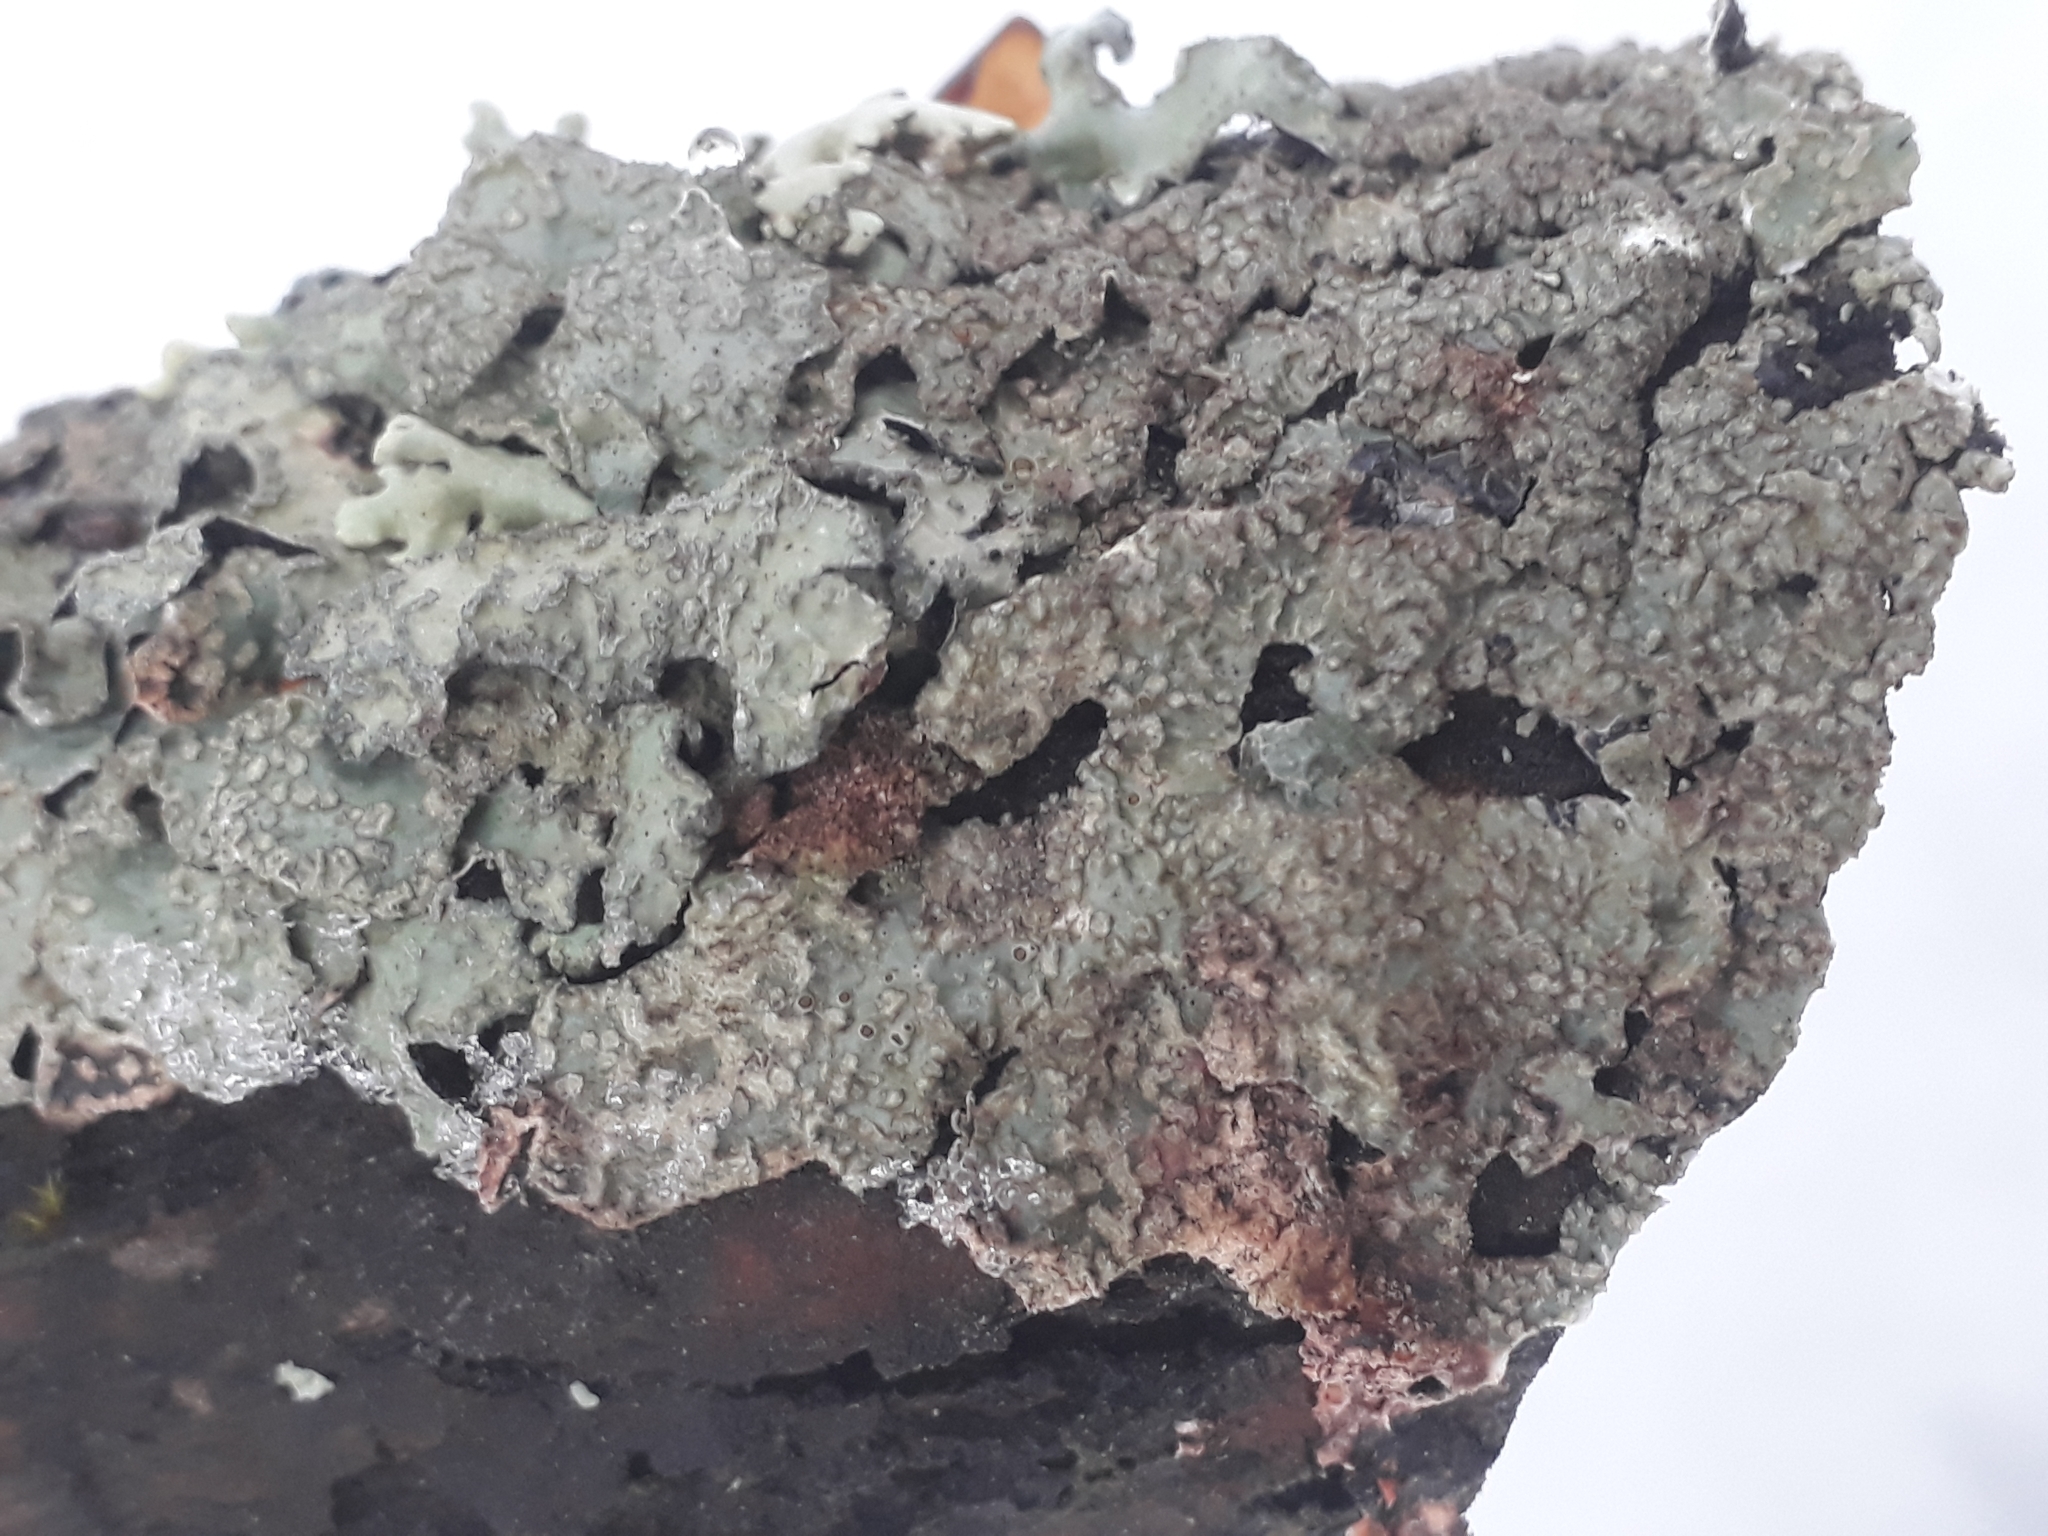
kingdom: Fungi
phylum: Ascomycota
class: Lecanoromycetes
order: Lecanorales
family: Parmeliaceae
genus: Parmelia
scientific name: Parmelia sulcata
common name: Netted shield lichen
